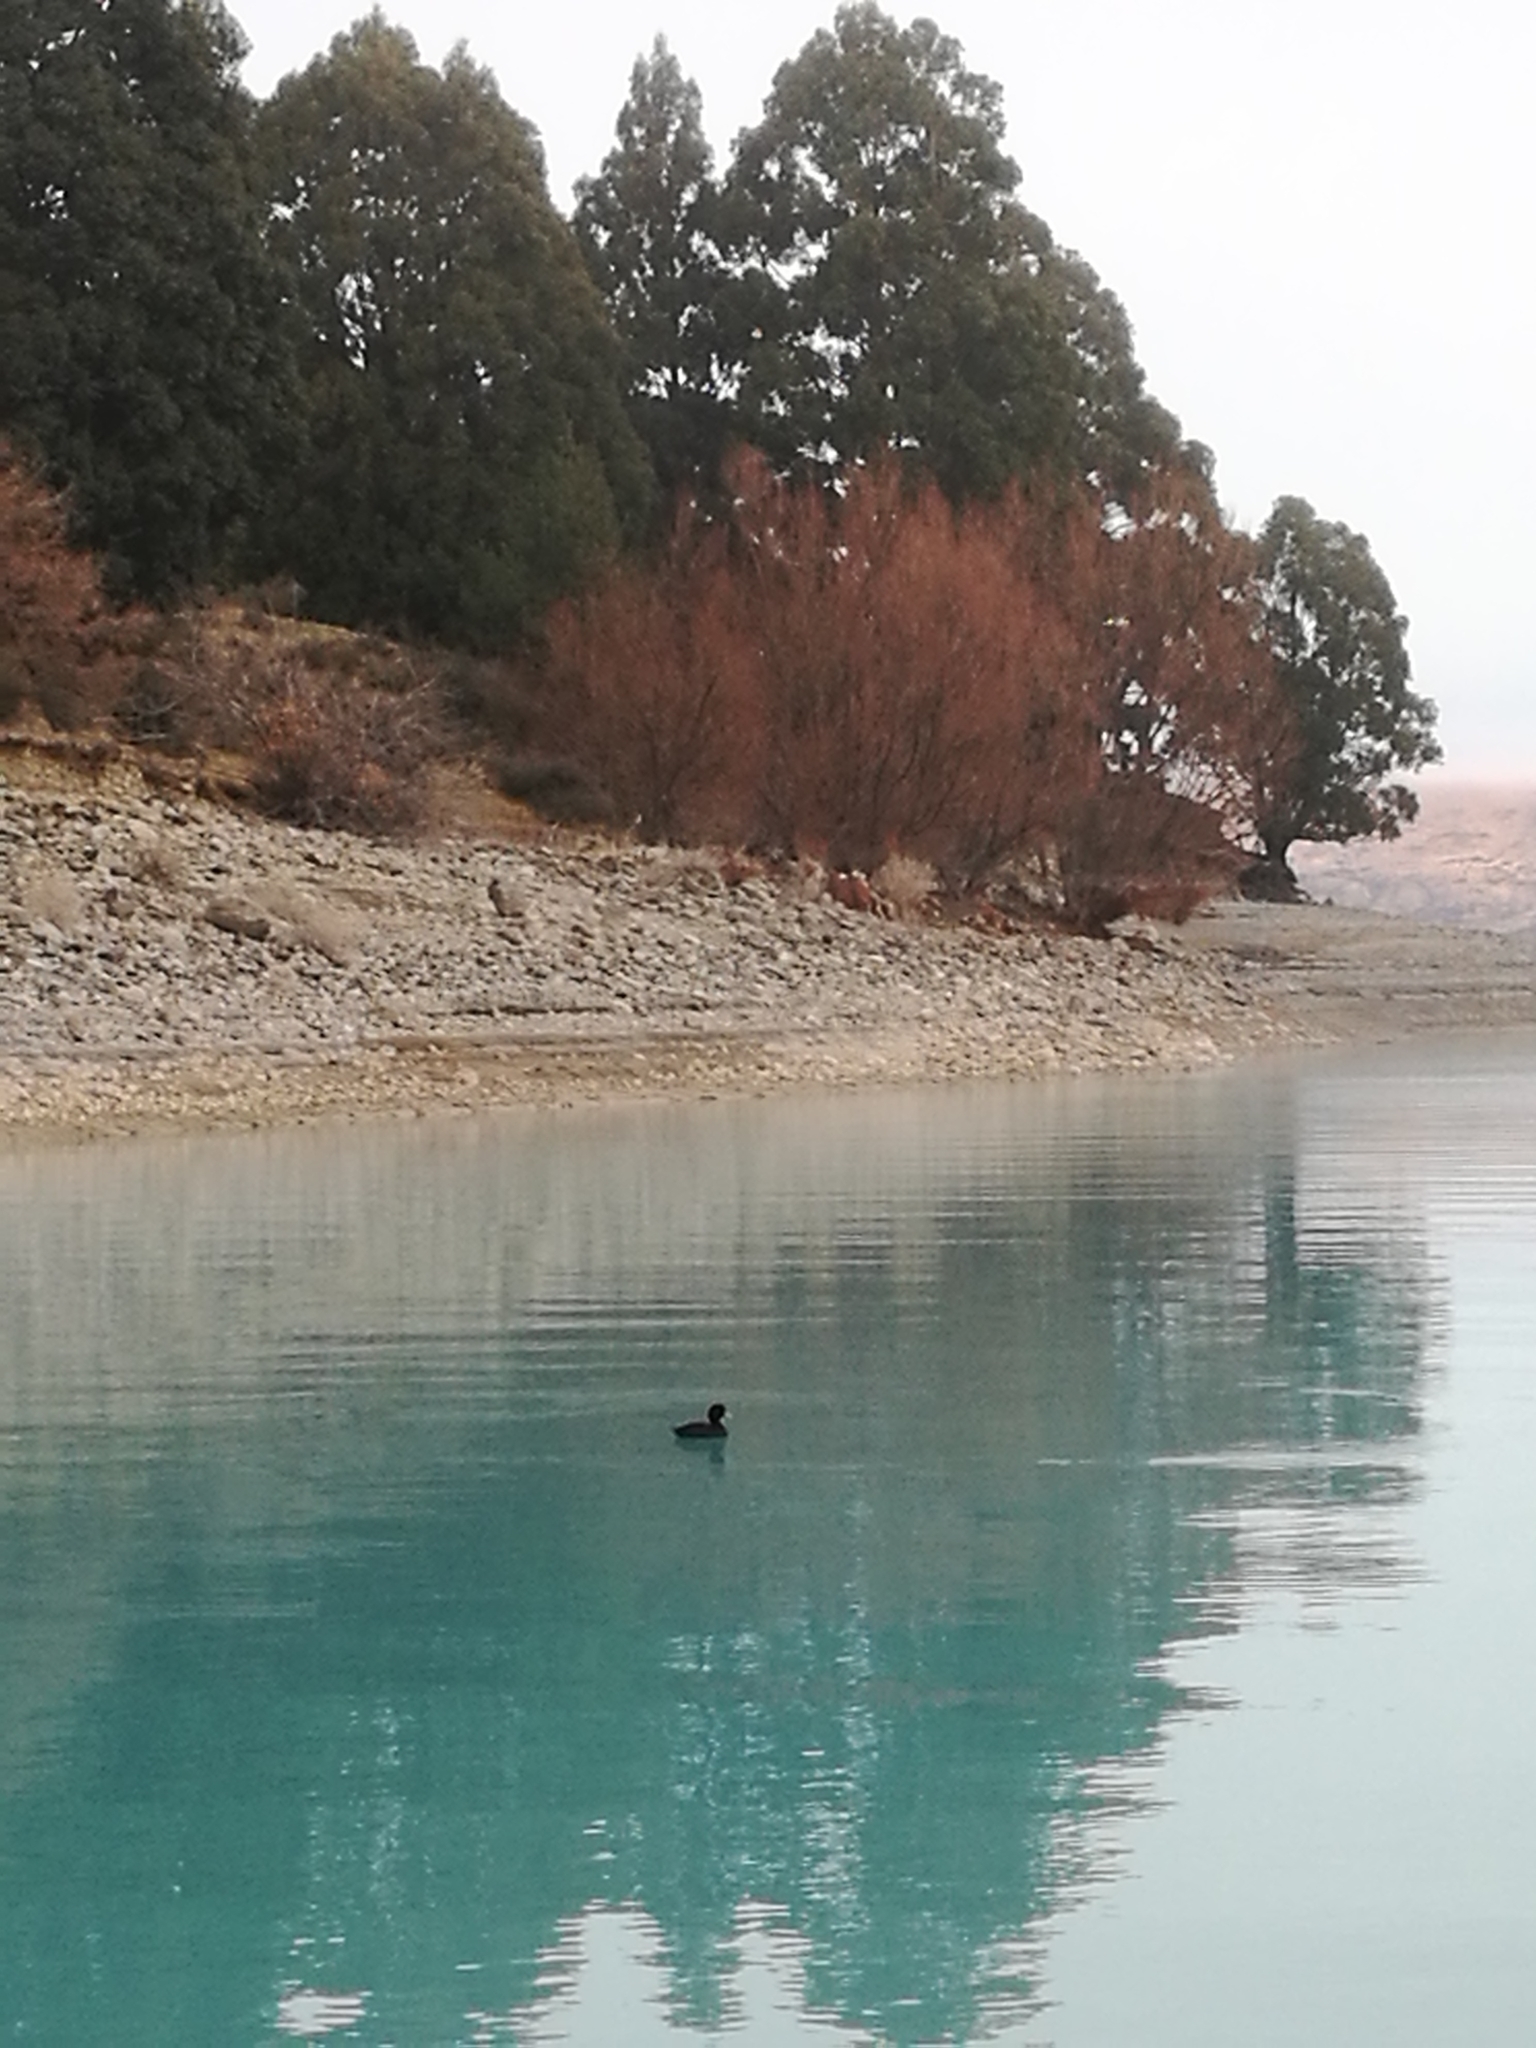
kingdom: Animalia
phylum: Chordata
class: Aves
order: Anseriformes
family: Anatidae
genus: Aythya
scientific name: Aythya novaeseelandiae
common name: New zealand scaup
